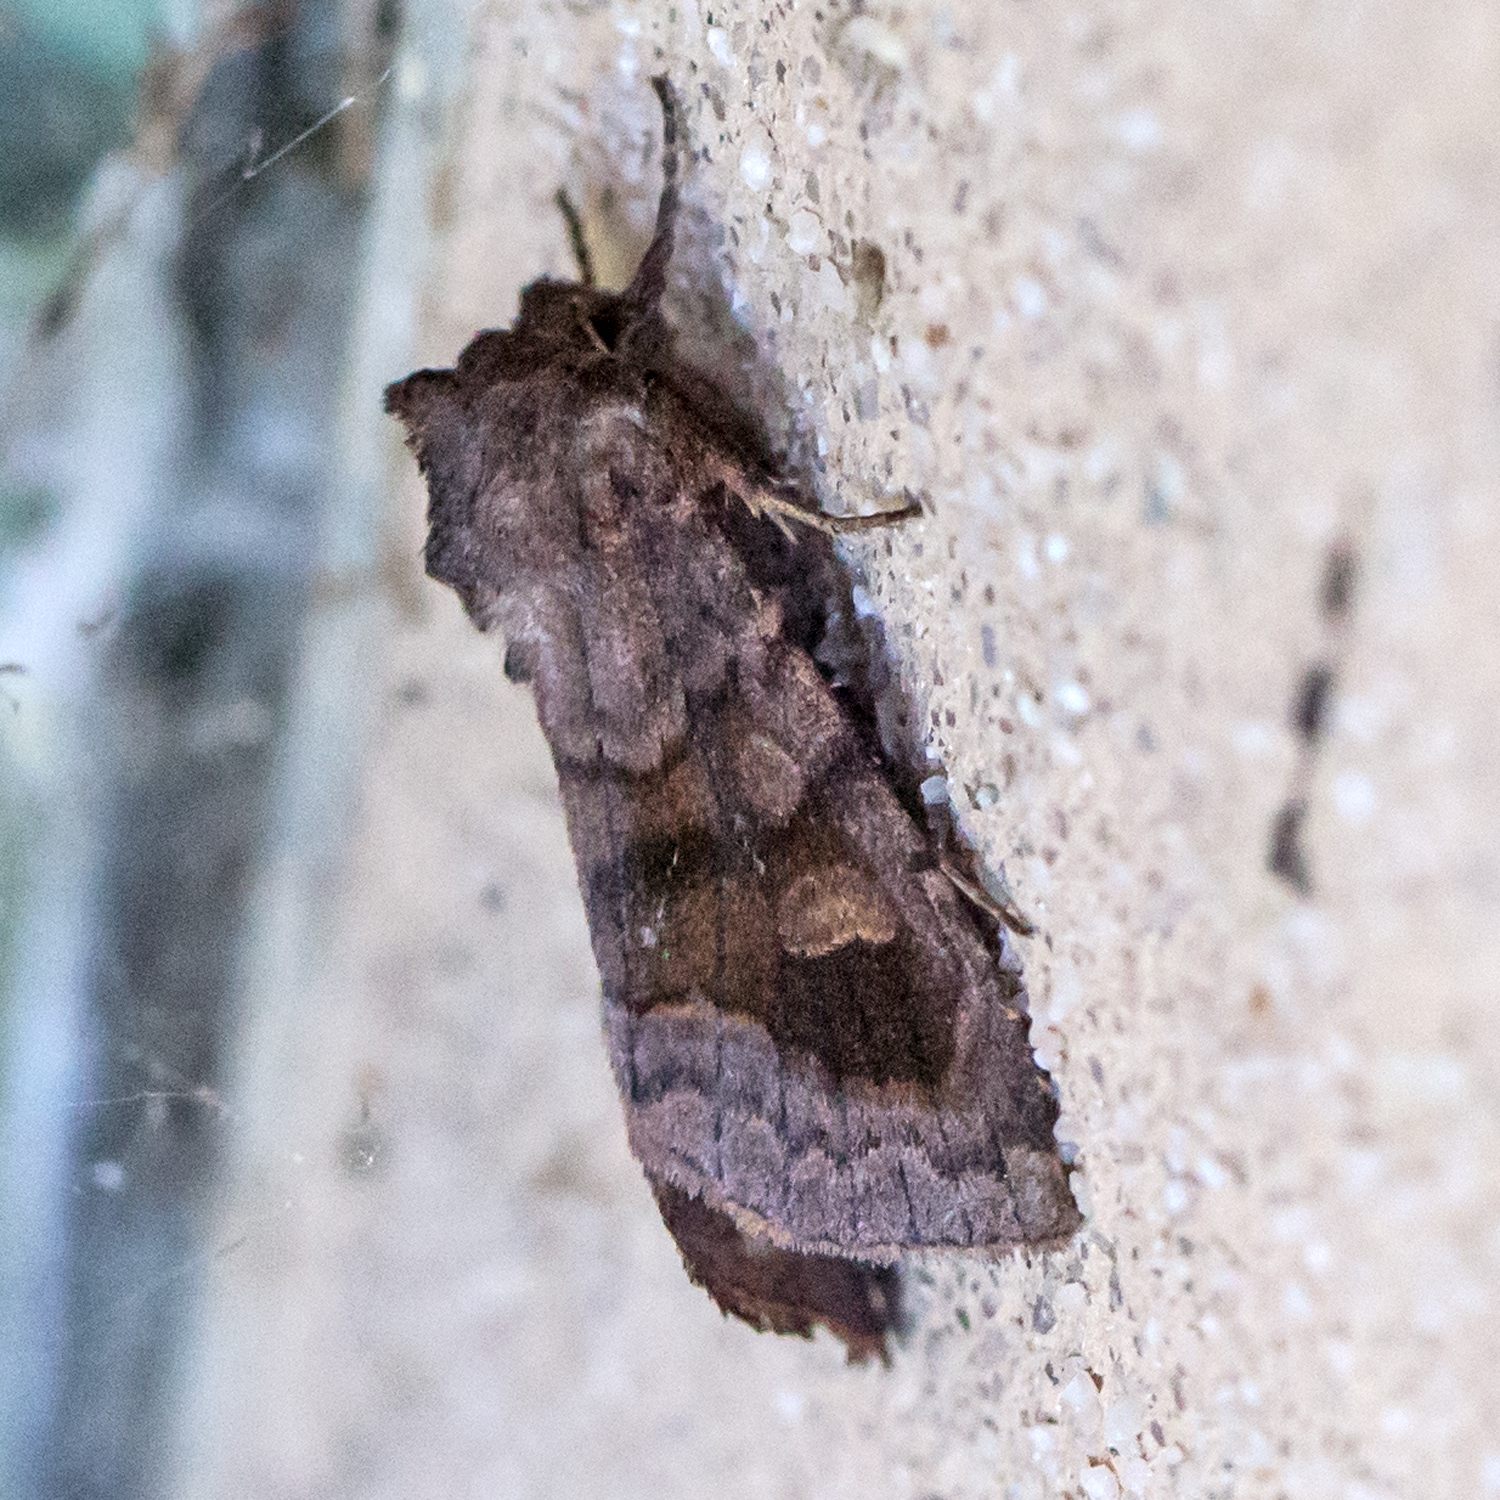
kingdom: Animalia
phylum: Arthropoda
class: Insecta
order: Lepidoptera
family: Noctuidae
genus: Nephelodes
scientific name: Nephelodes minians
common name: Bronzed cutworm
